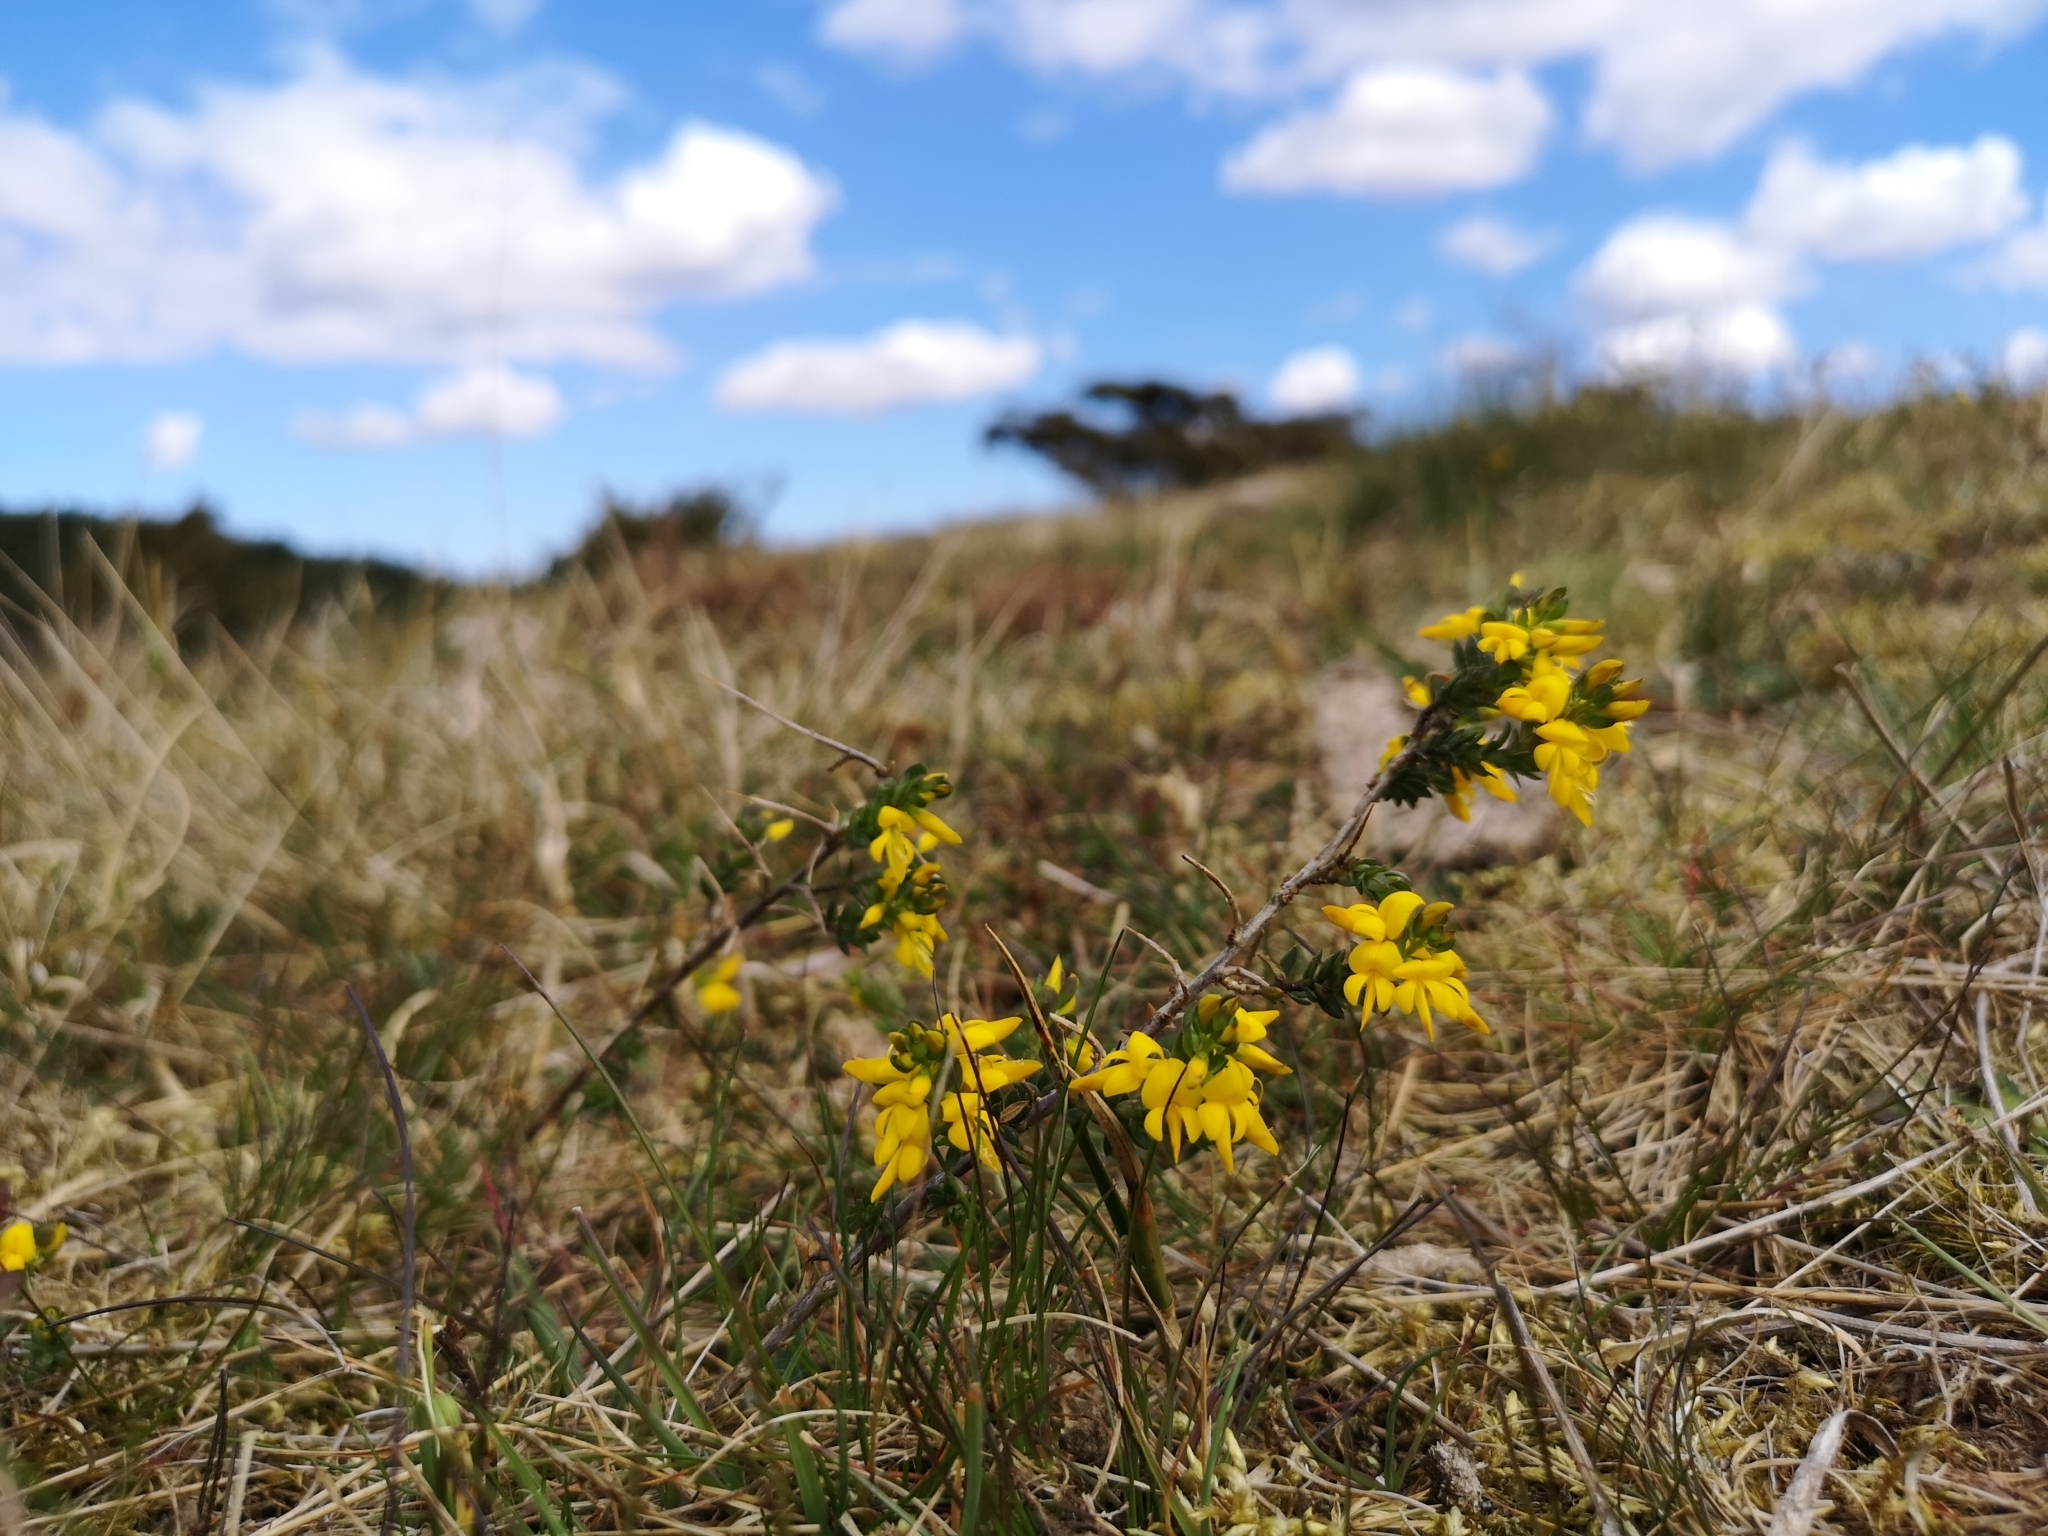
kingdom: Plantae
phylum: Tracheophyta
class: Magnoliopsida
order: Fabales
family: Fabaceae
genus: Genista
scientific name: Genista anglica
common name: Petty whin
